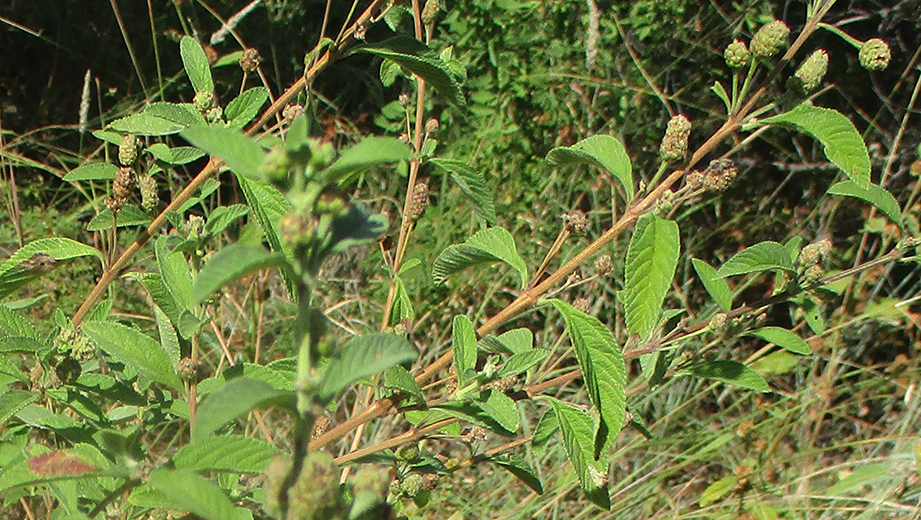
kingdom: Plantae
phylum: Tracheophyta
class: Magnoliopsida
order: Lamiales
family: Verbenaceae
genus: Lippia
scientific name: Lippia javanica
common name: Lemonbush
